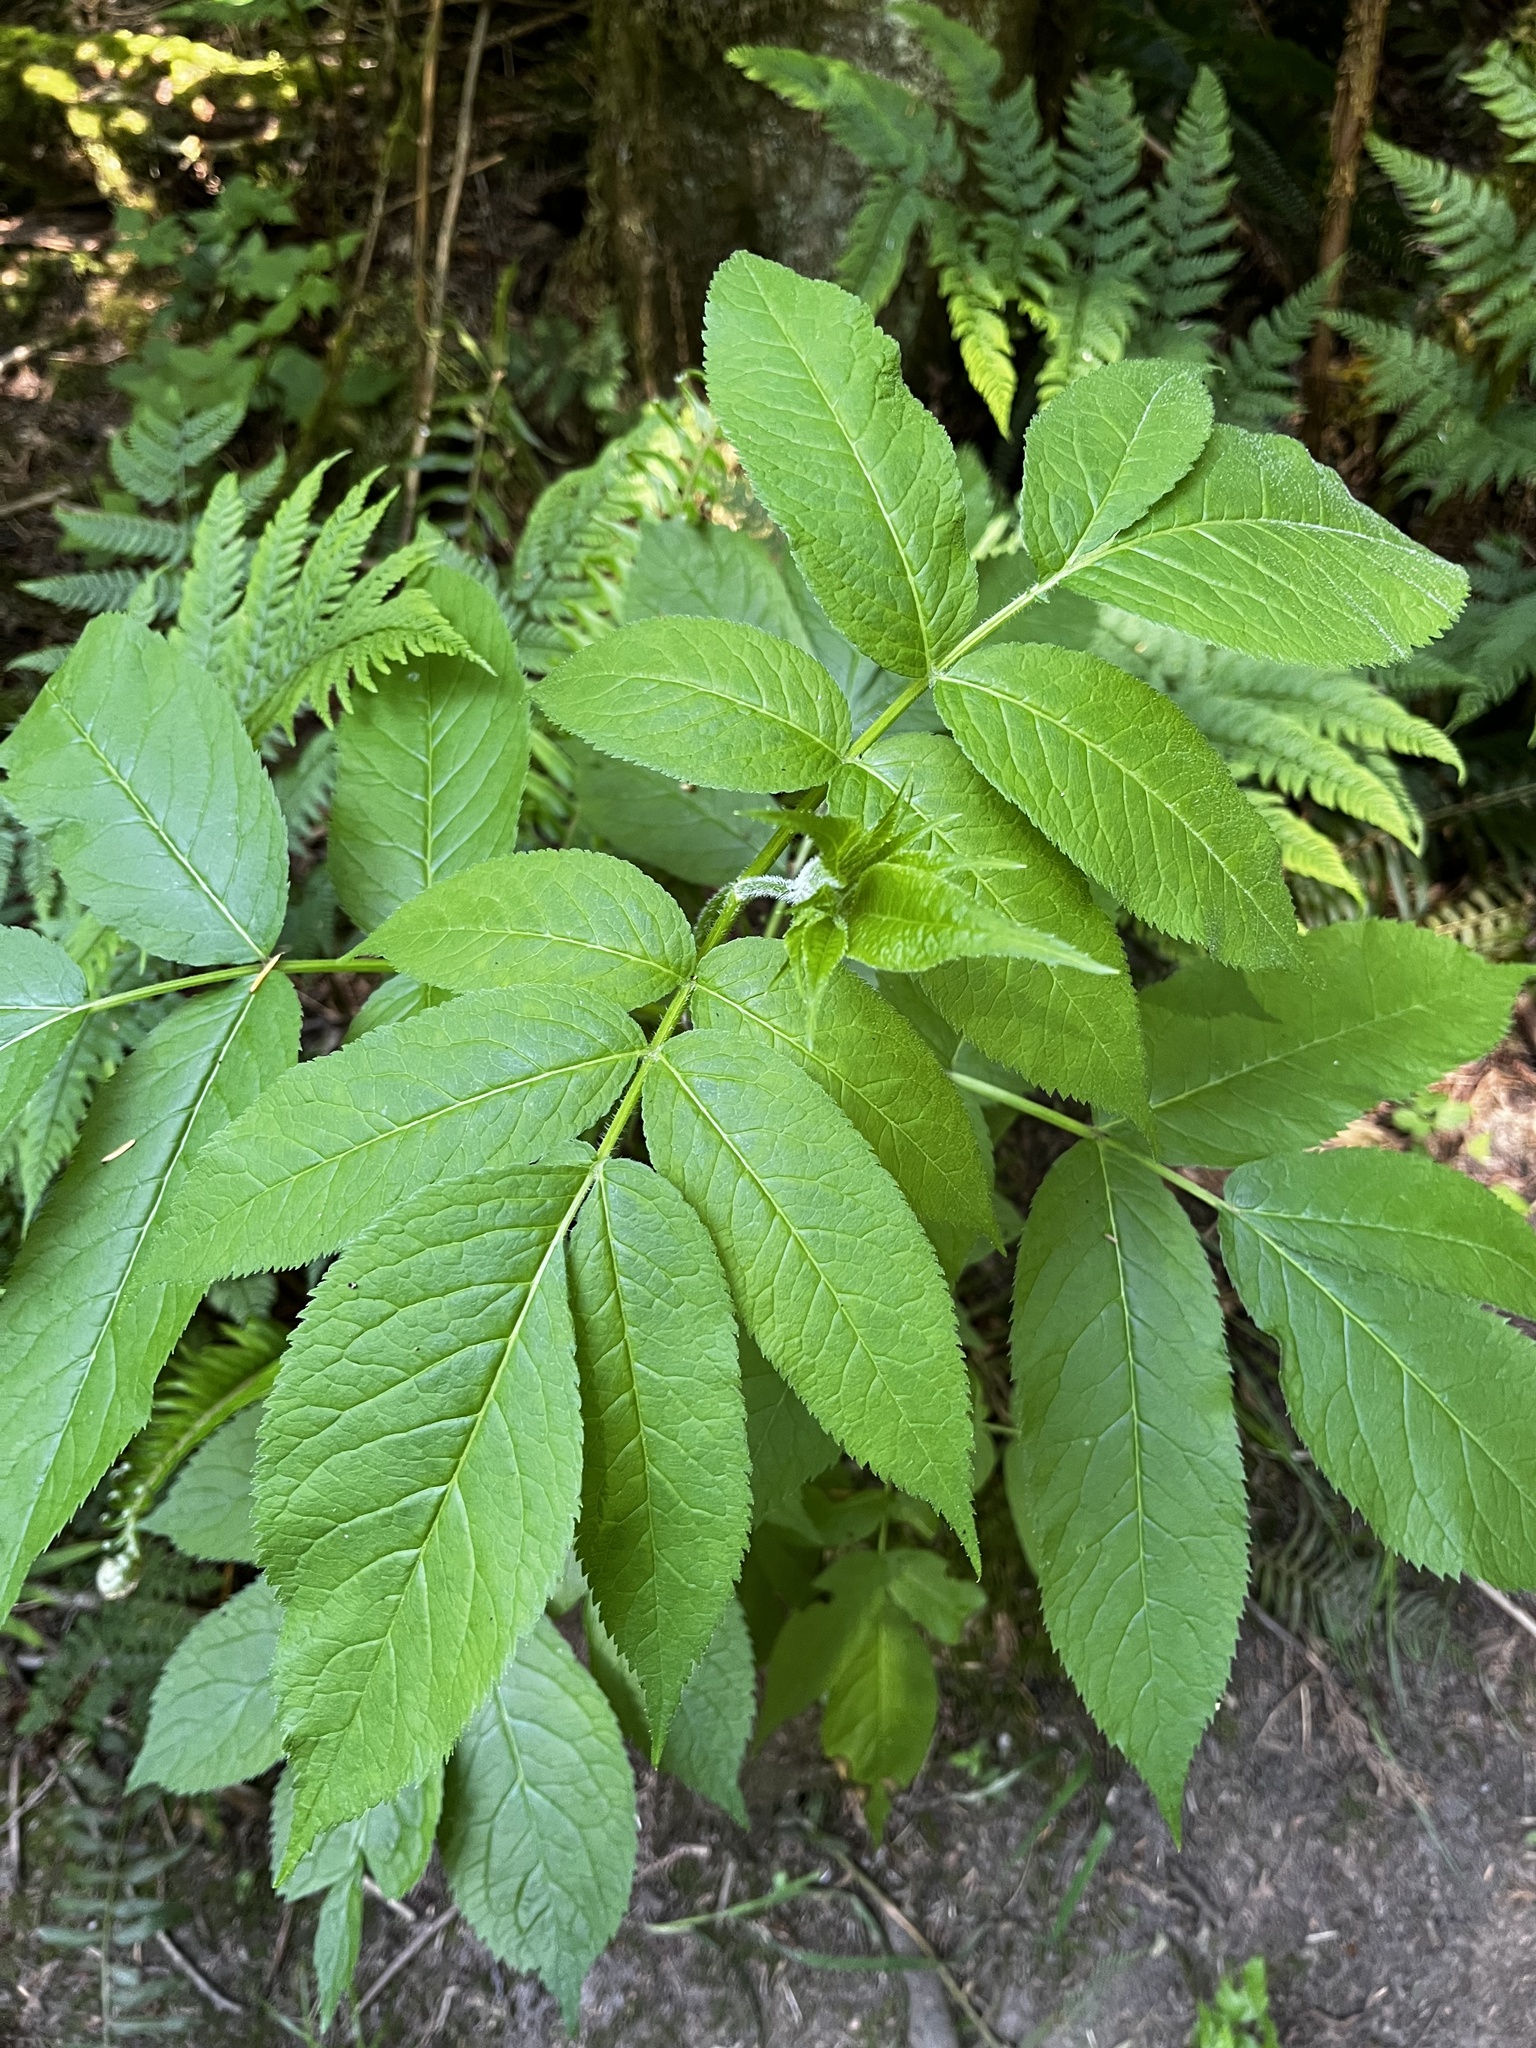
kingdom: Plantae
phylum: Tracheophyta
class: Magnoliopsida
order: Dipsacales
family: Viburnaceae
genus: Sambucus
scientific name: Sambucus racemosa
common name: Red-berried elder
